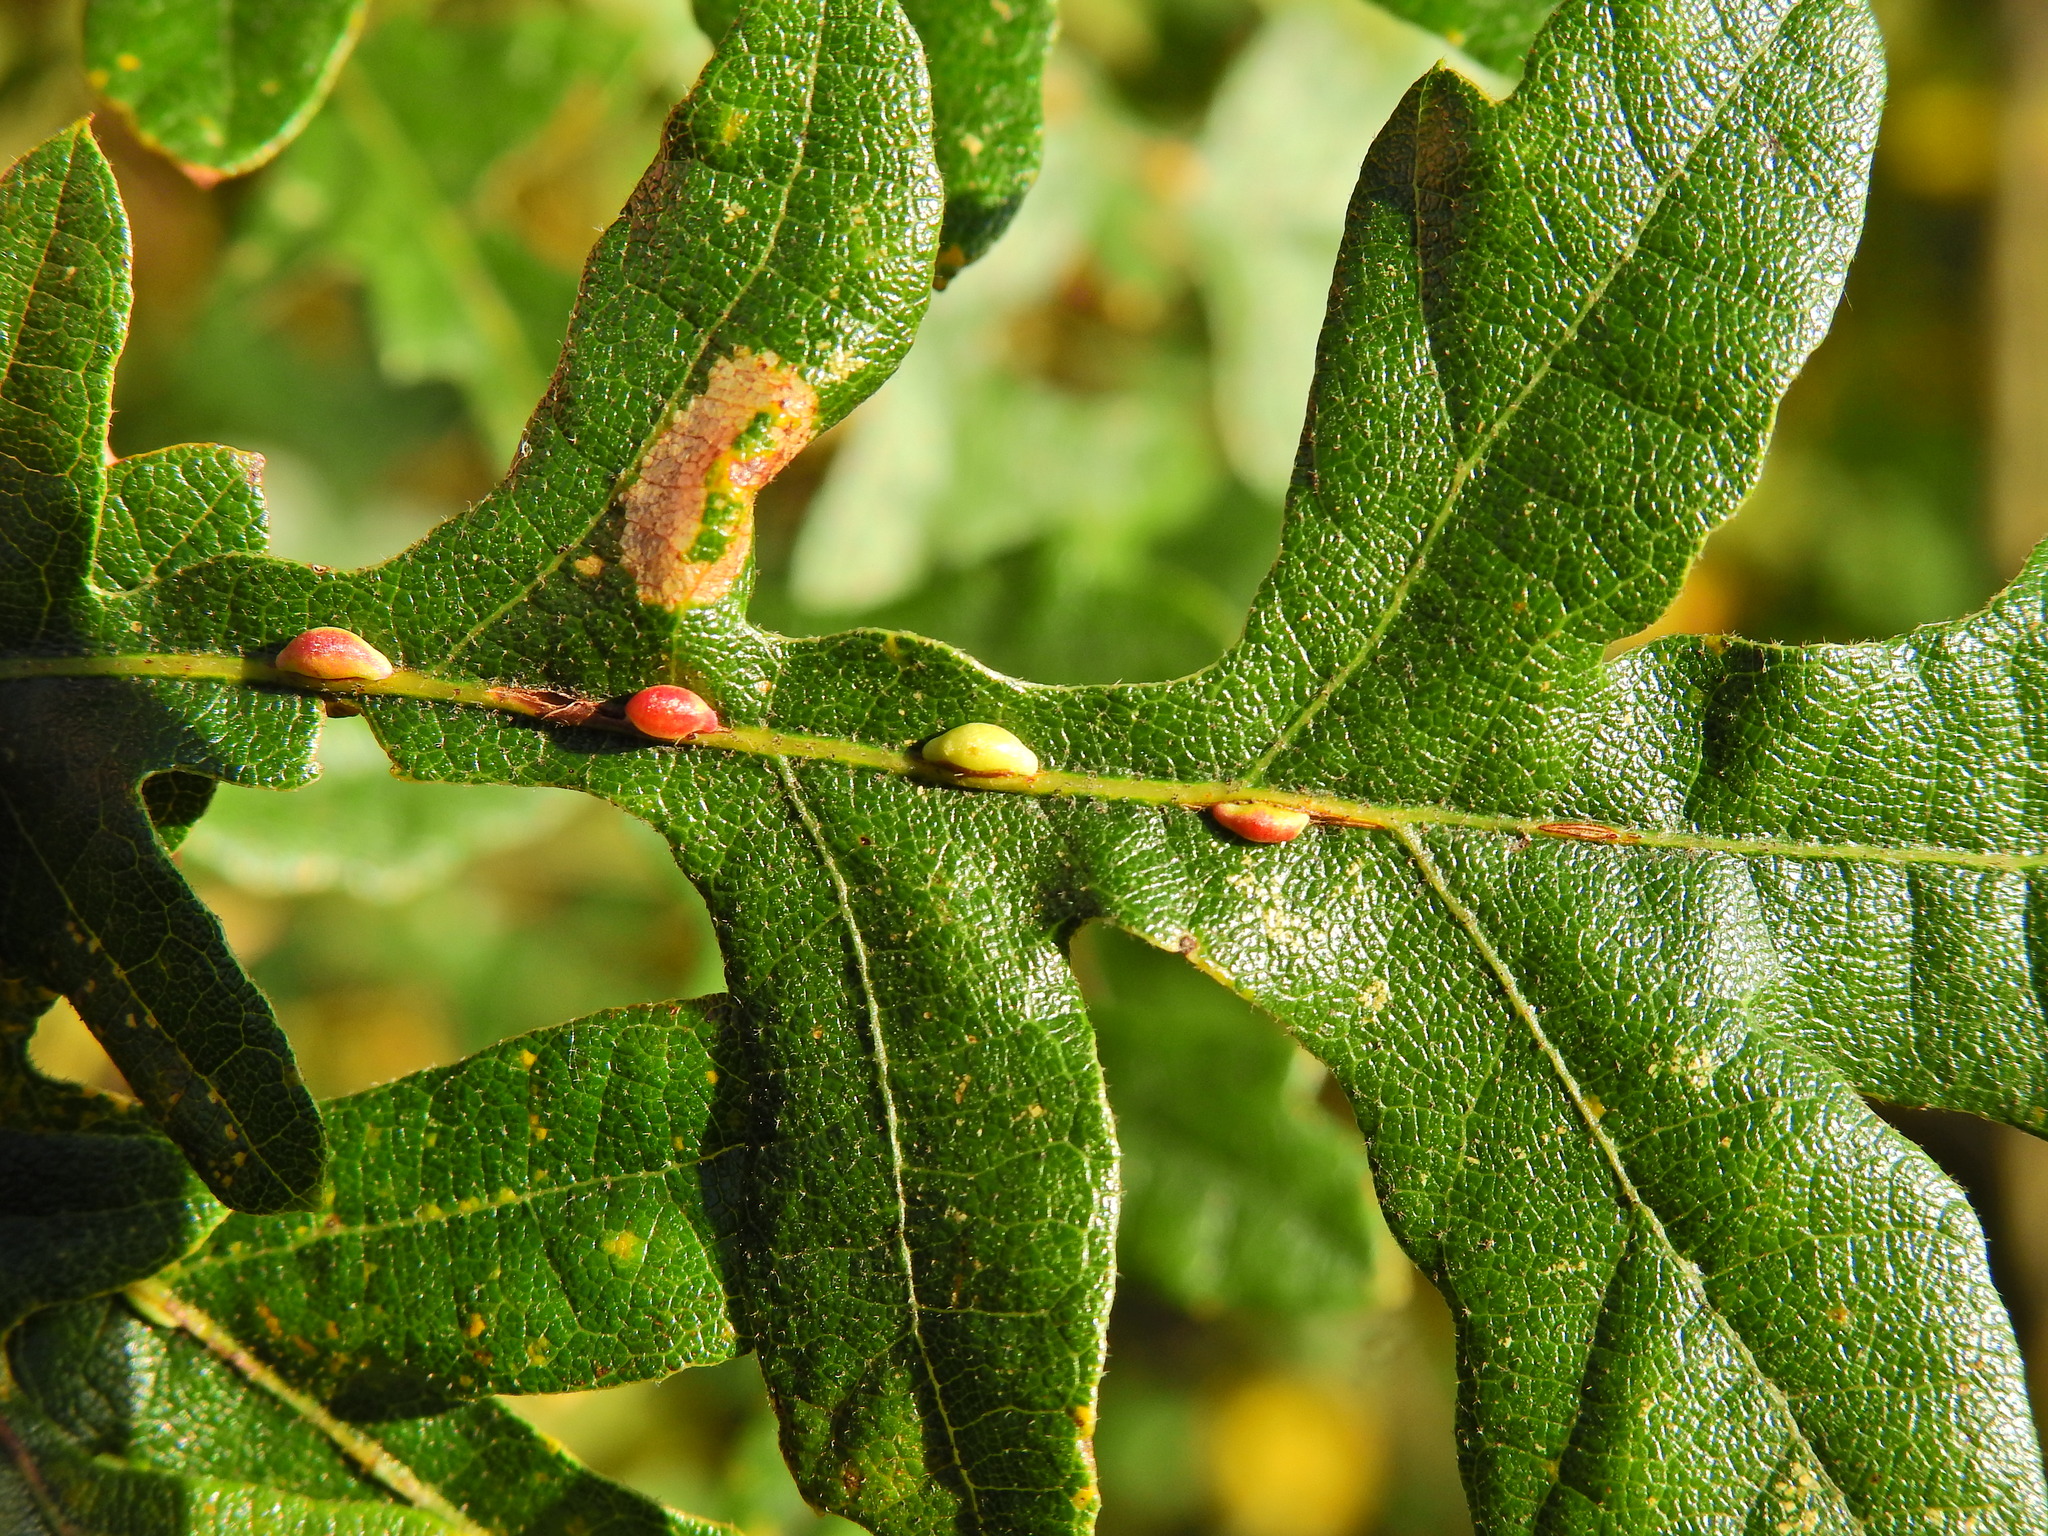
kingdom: Animalia
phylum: Arthropoda
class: Insecta
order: Hymenoptera
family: Cynipidae
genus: Neuroterus
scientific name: Neuroterus saliens
